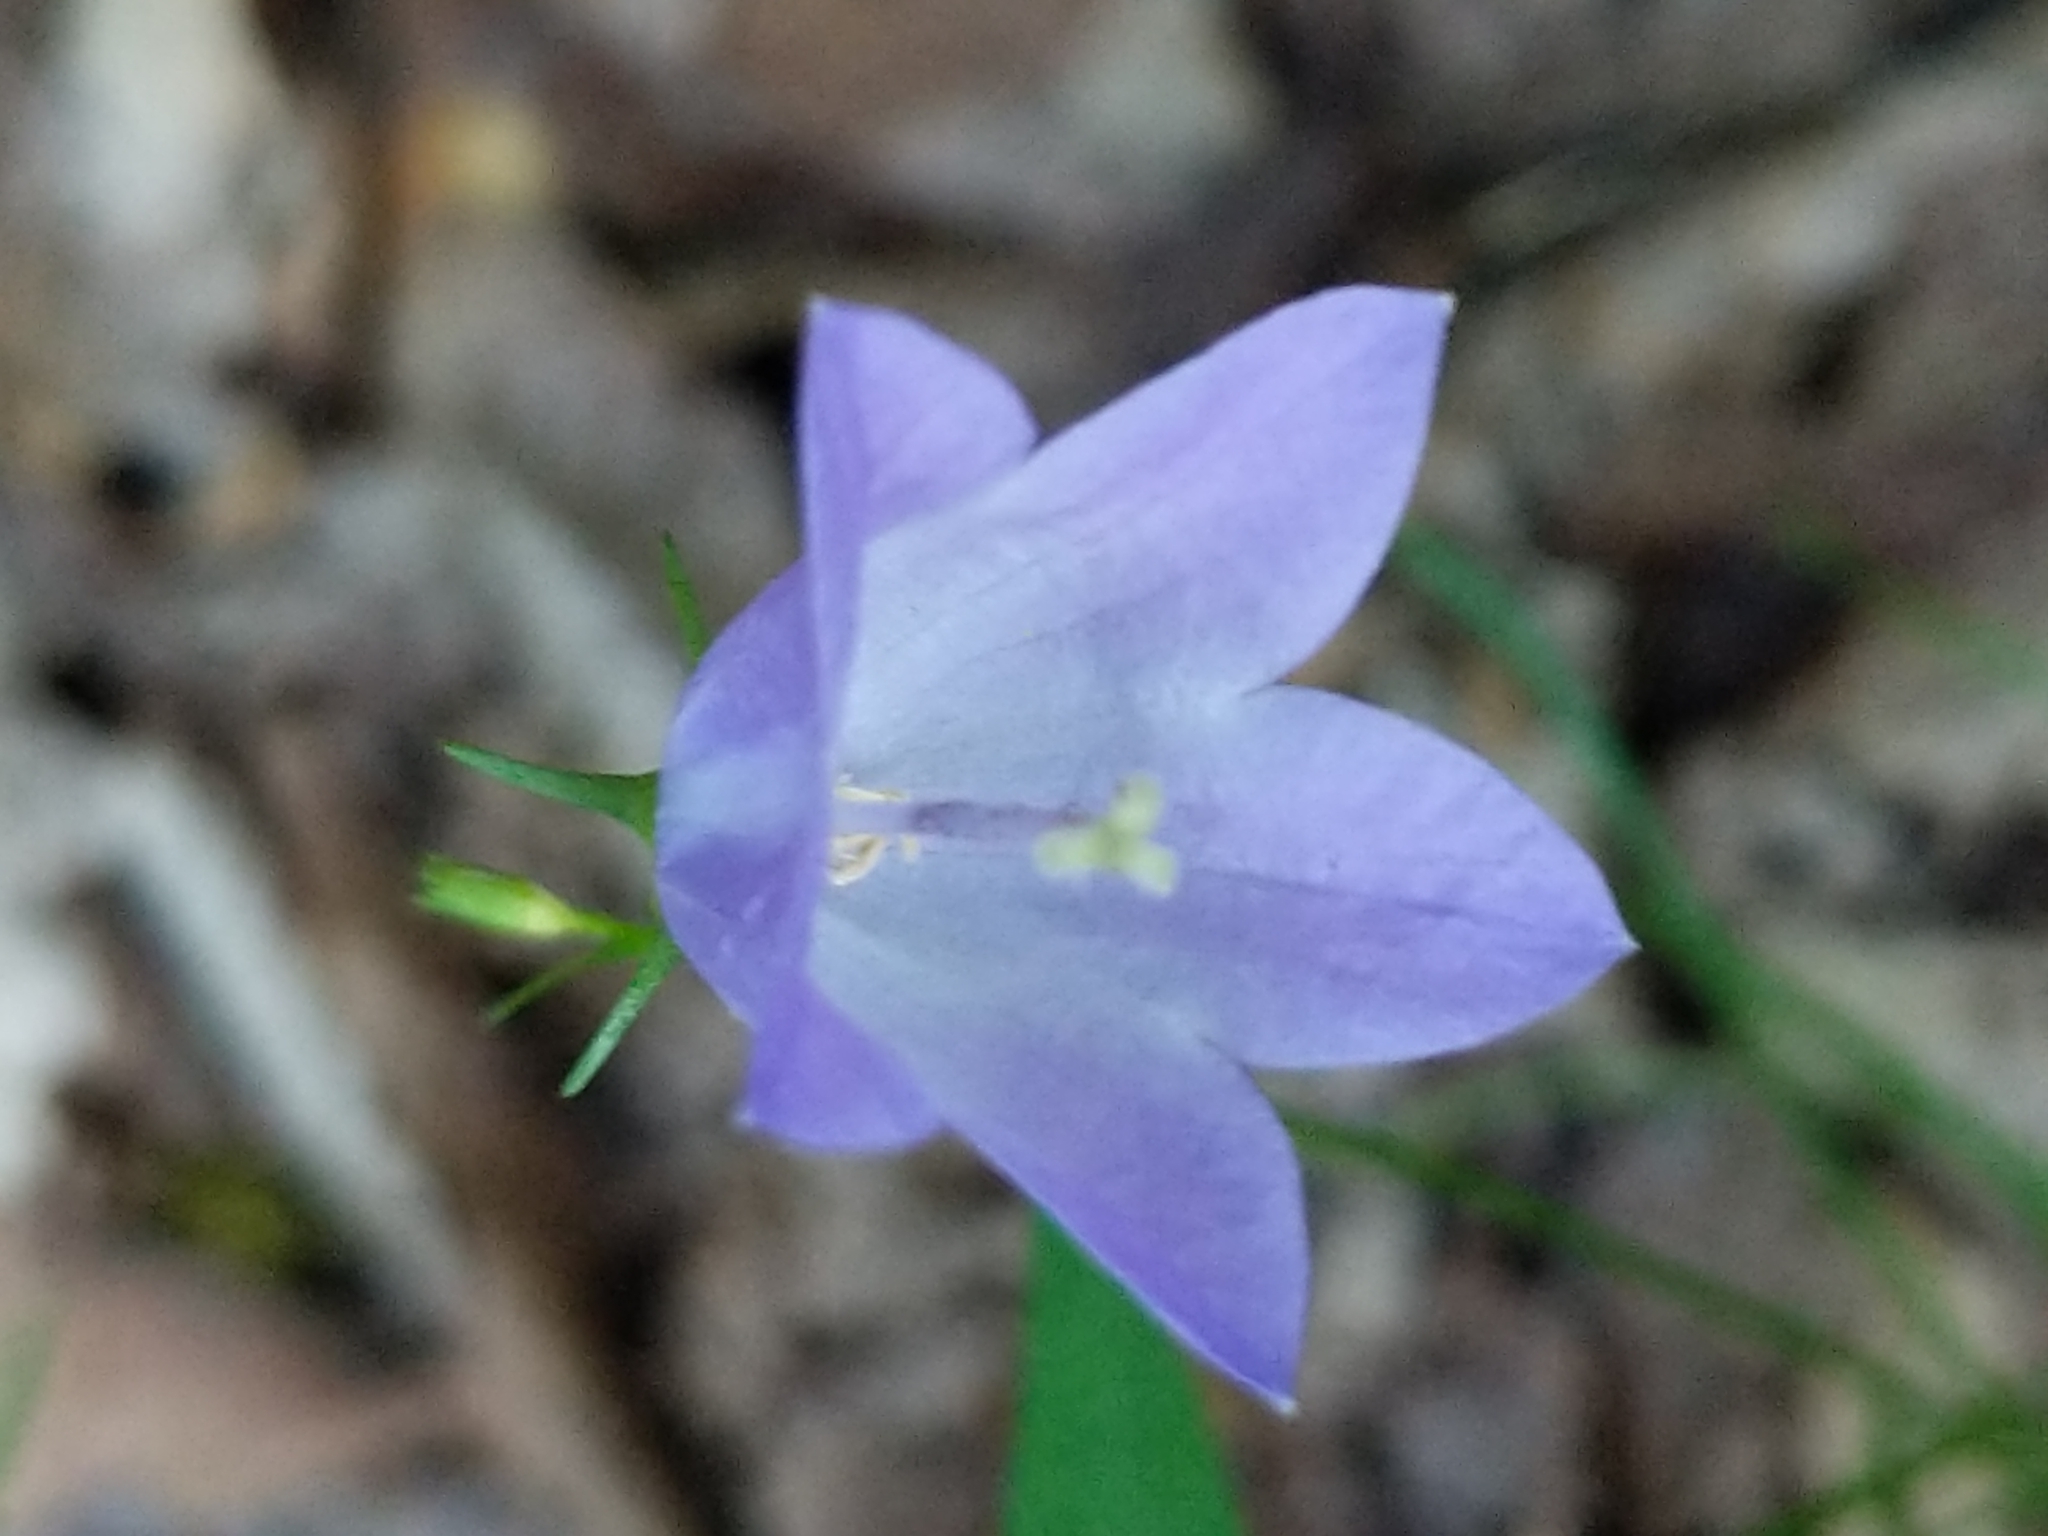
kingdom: Plantae
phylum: Tracheophyta
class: Magnoliopsida
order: Asterales
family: Campanulaceae
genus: Campanula
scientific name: Campanula intercedens
